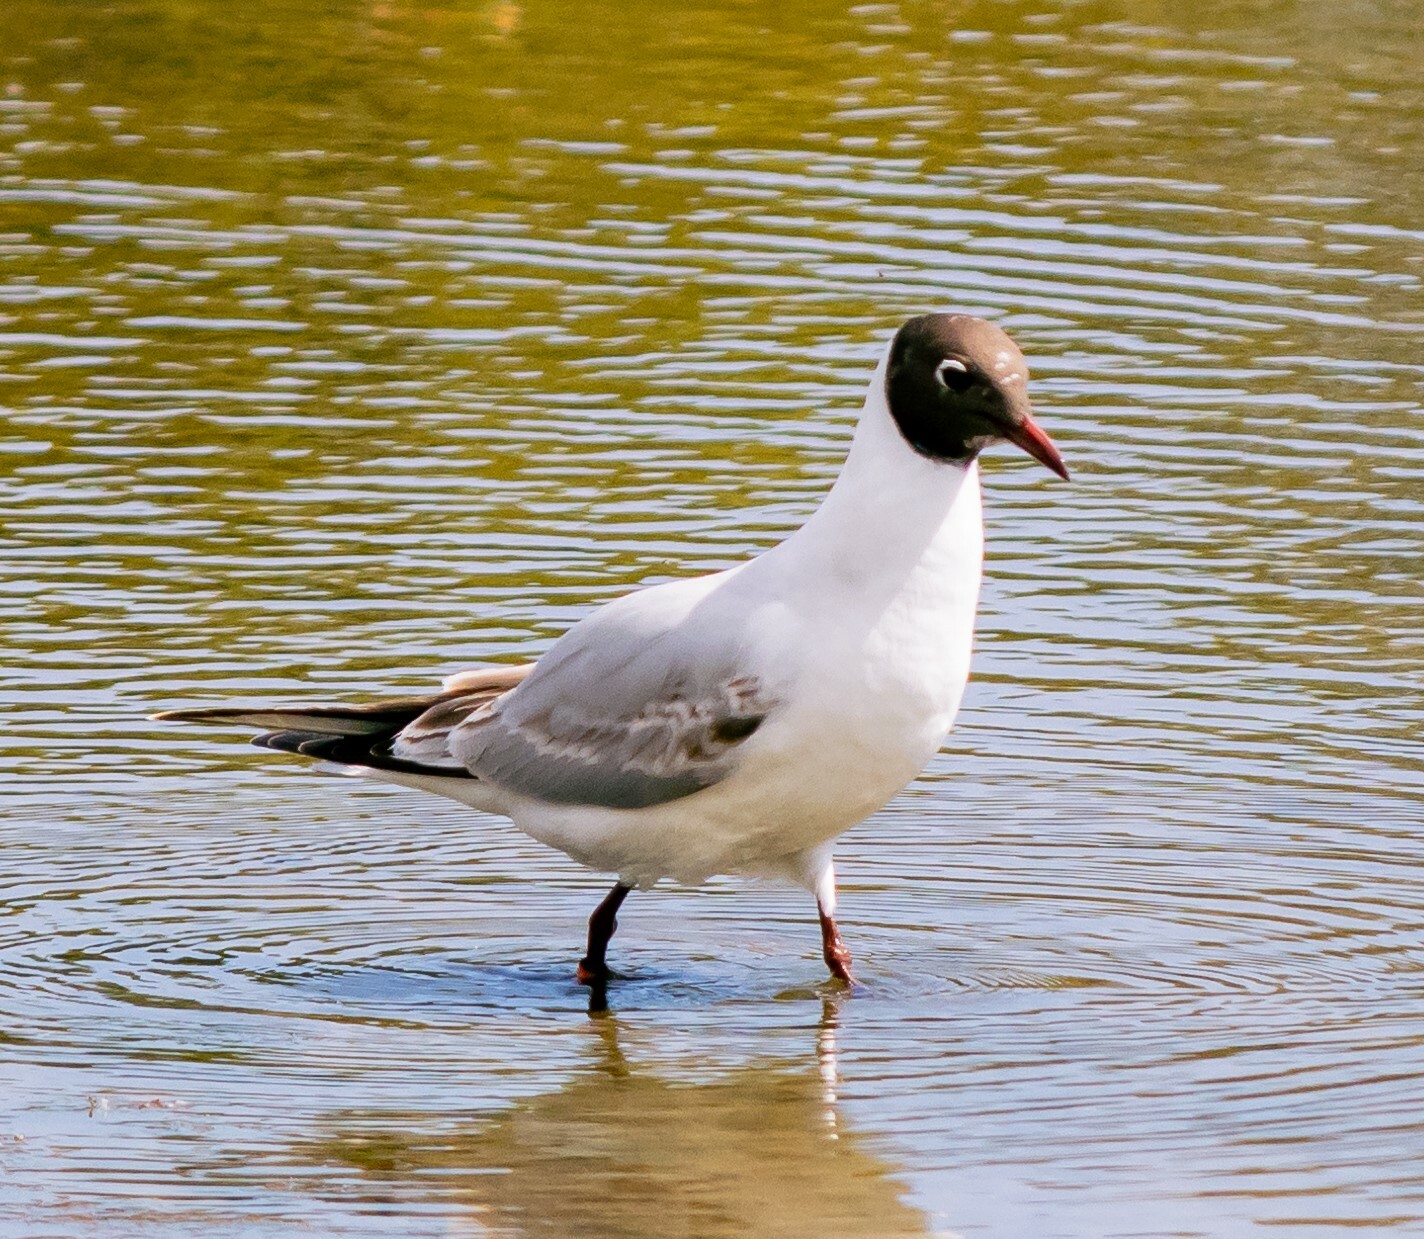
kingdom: Animalia
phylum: Chordata
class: Aves
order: Charadriiformes
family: Laridae
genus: Chroicocephalus
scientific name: Chroicocephalus ridibundus
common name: Black-headed gull
